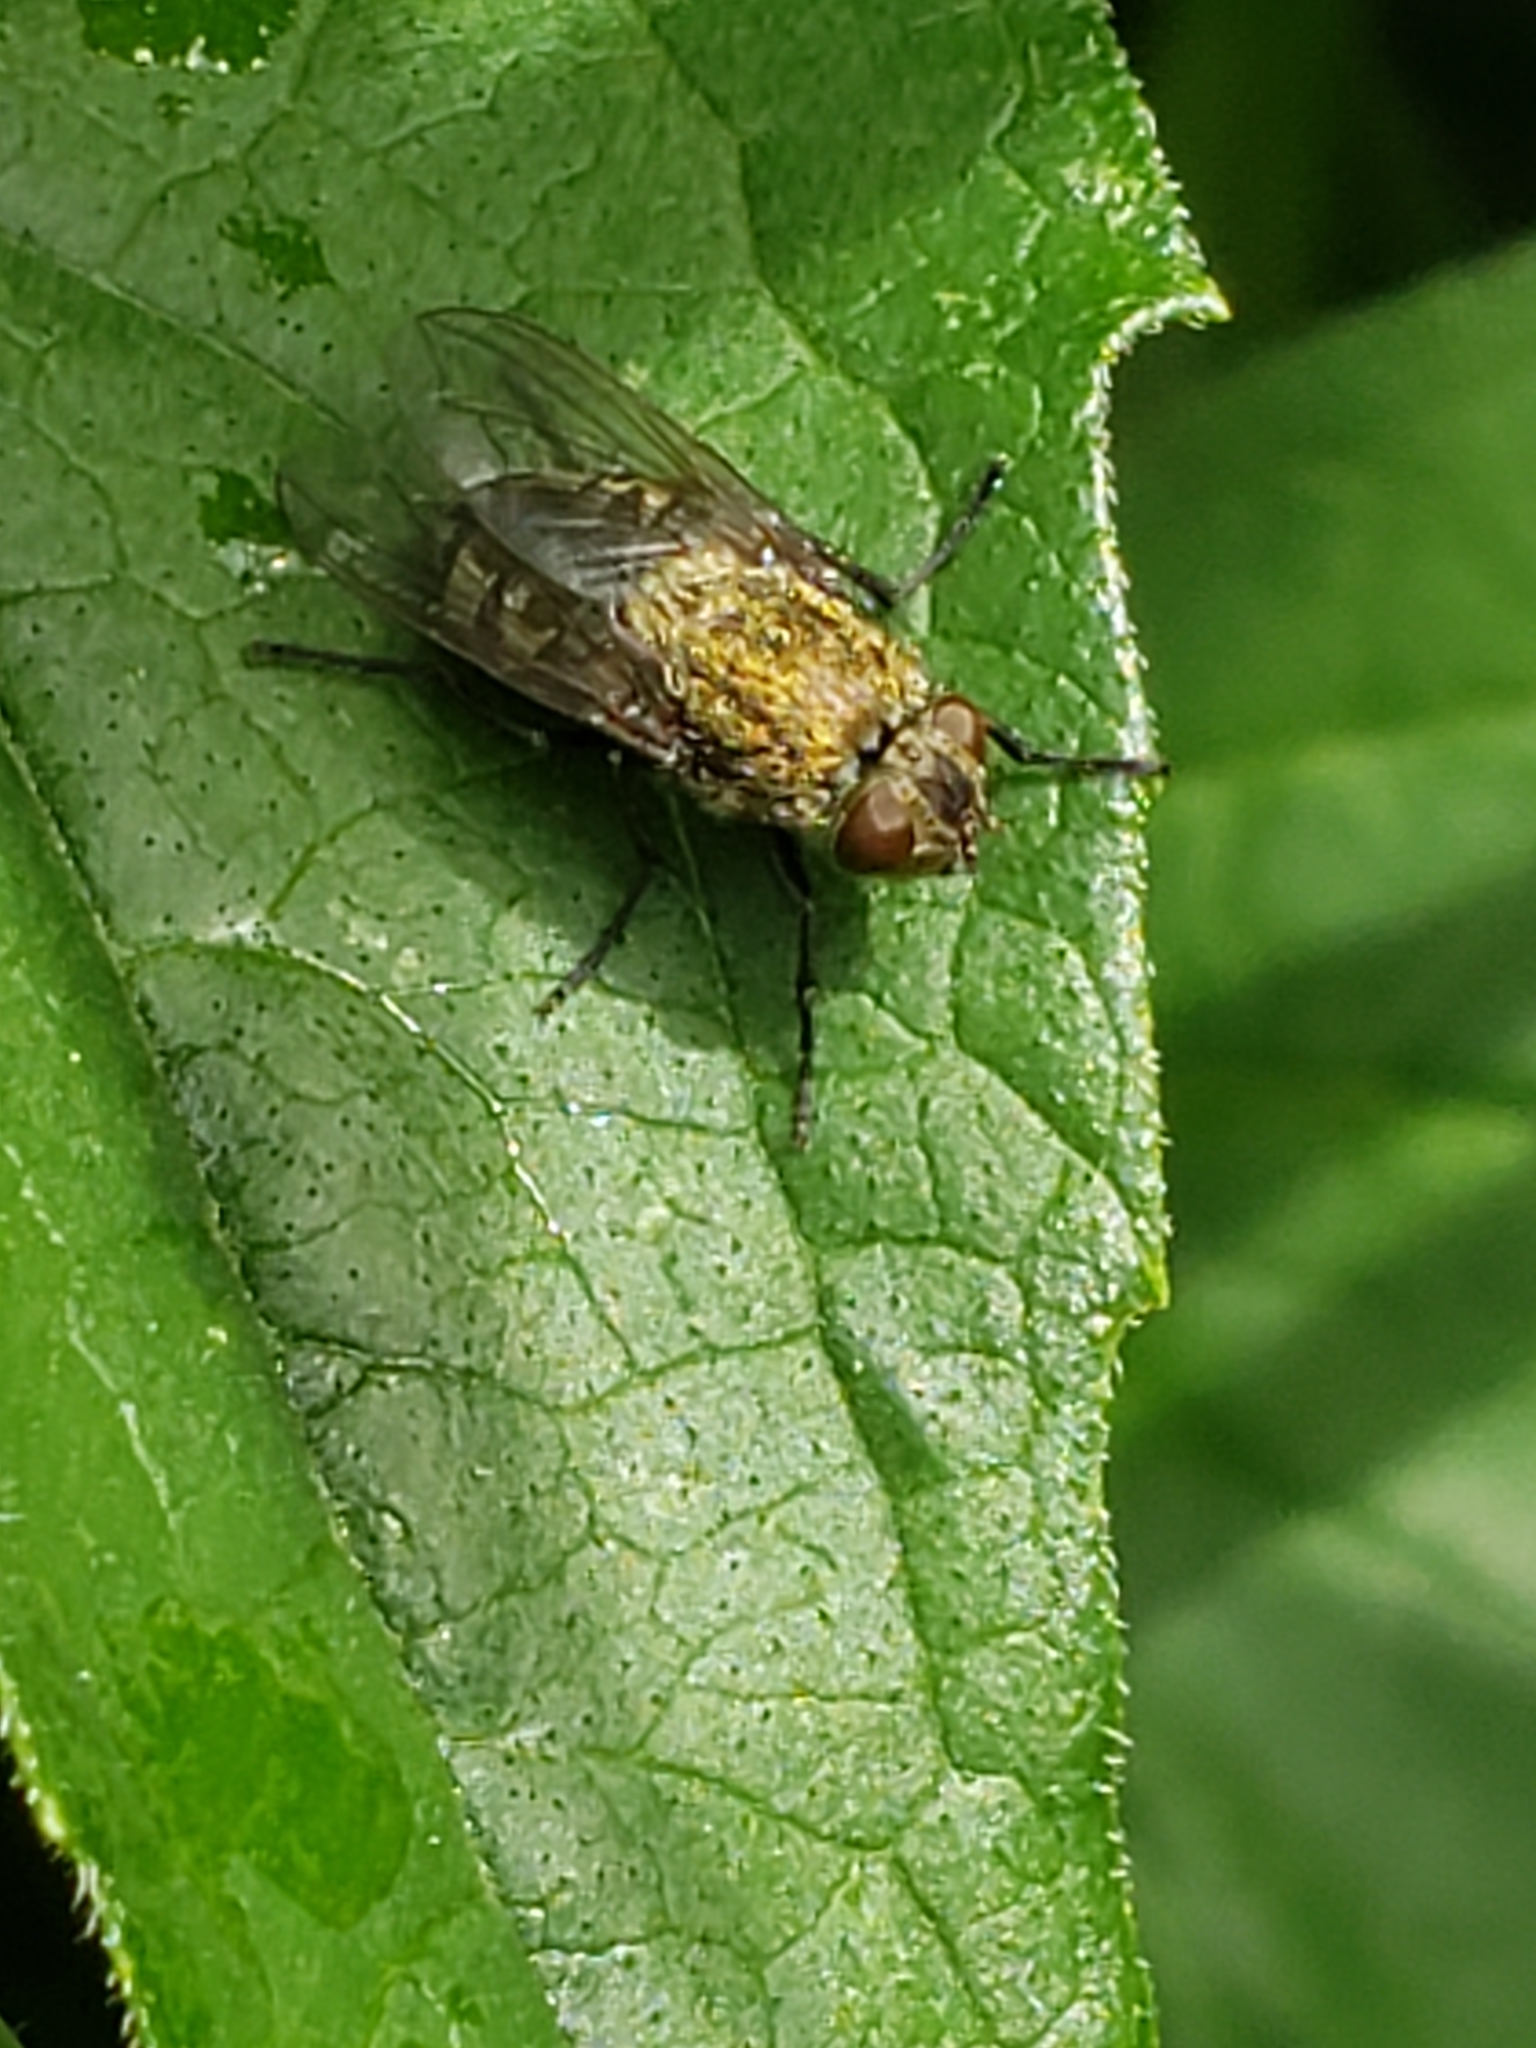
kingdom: Animalia
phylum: Arthropoda
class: Insecta
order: Diptera
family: Polleniidae
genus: Pollenia
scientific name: Pollenia
